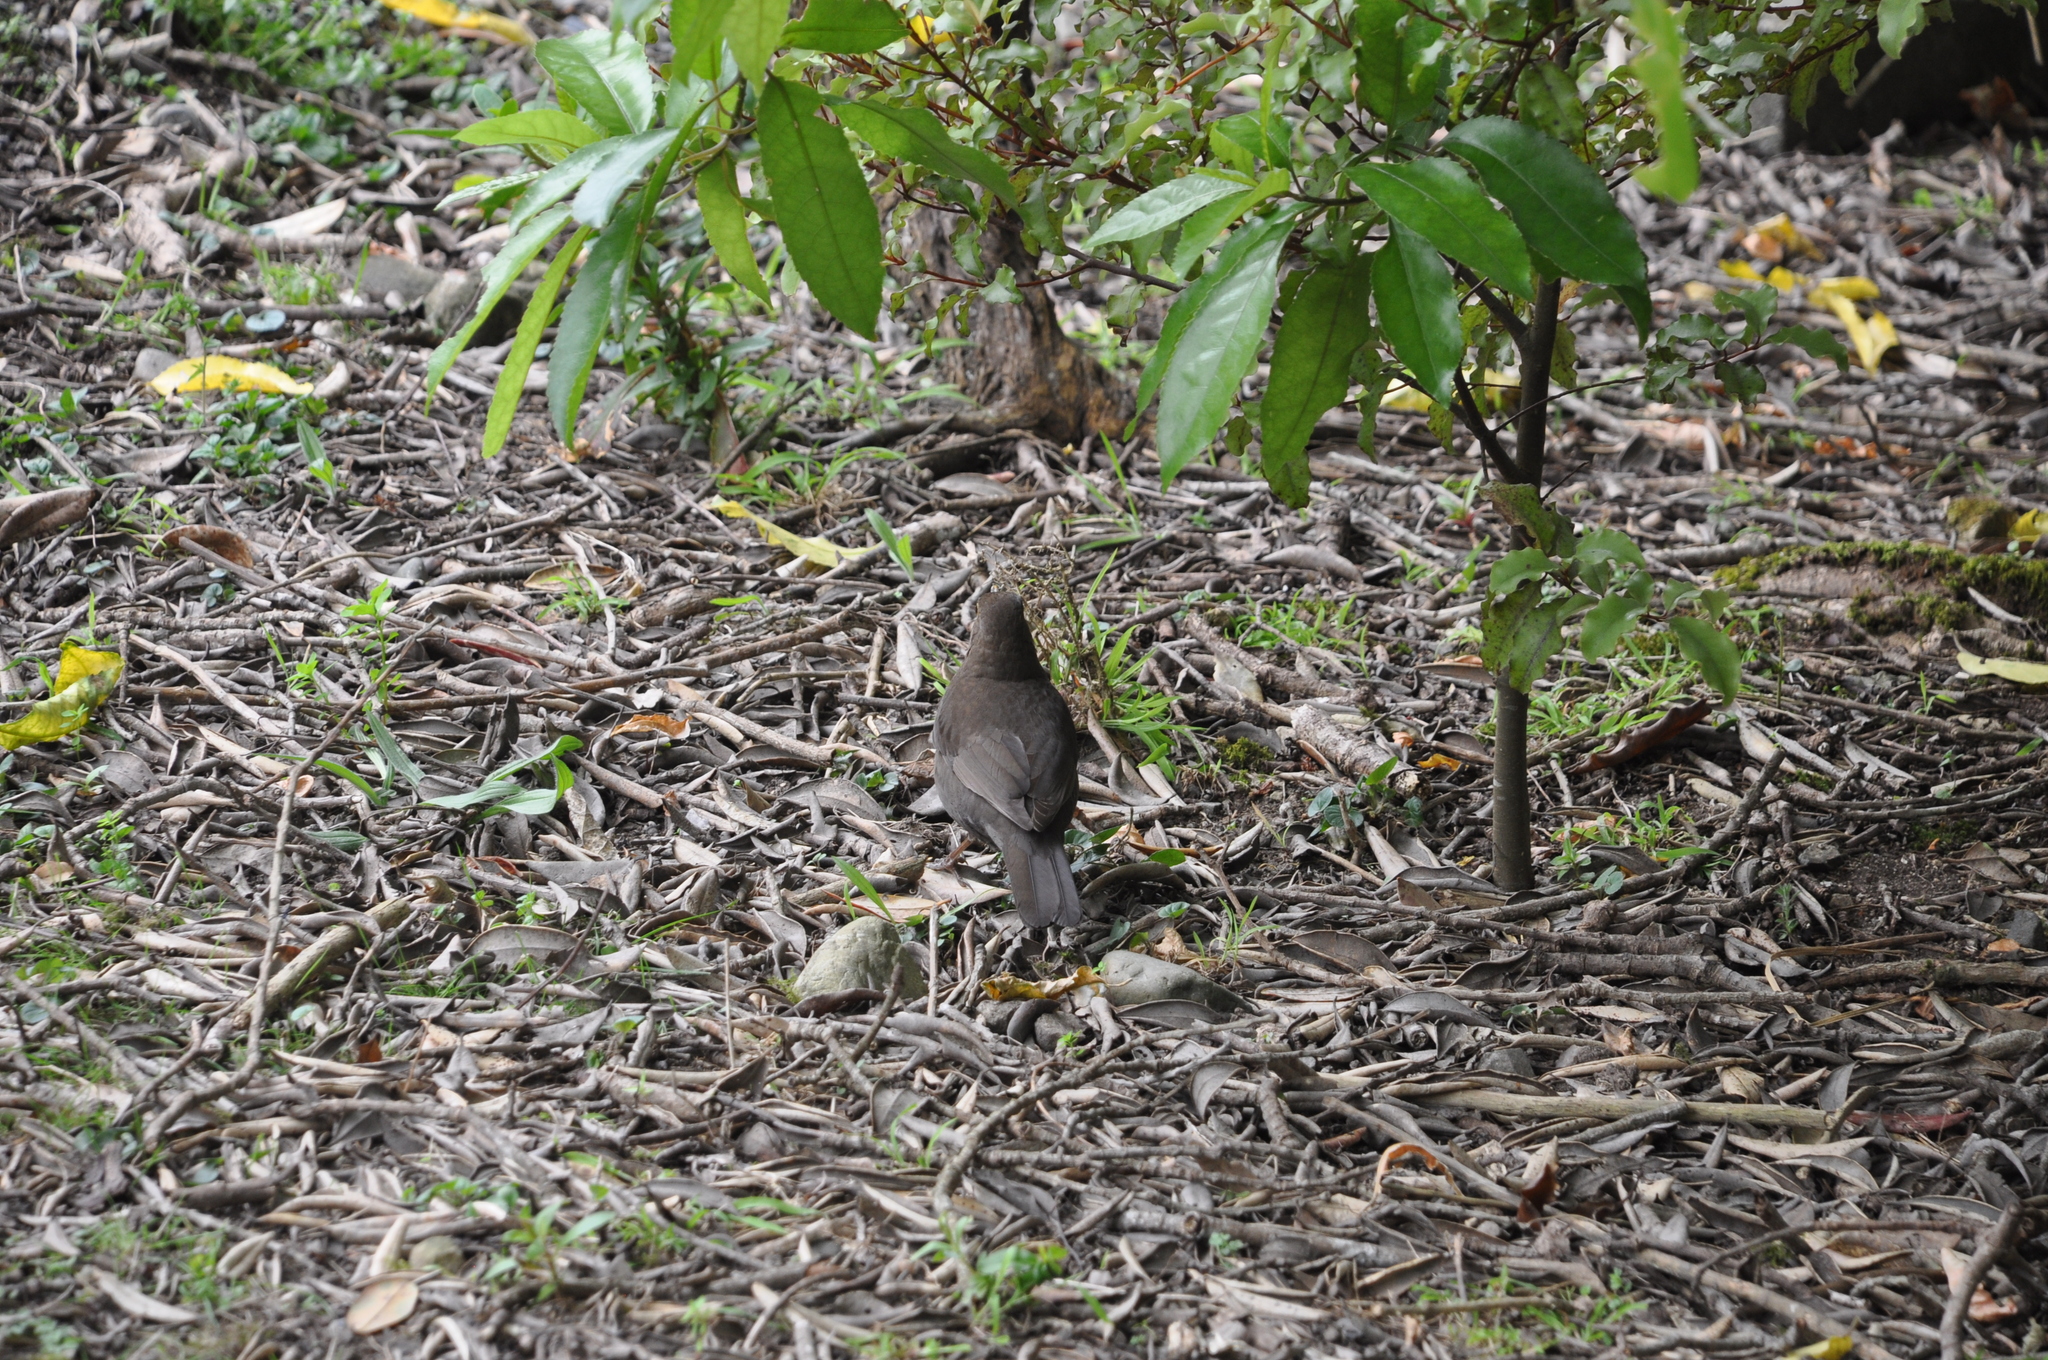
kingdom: Animalia
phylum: Chordata
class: Aves
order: Passeriformes
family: Turdidae
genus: Turdus
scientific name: Turdus merula
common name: Common blackbird
